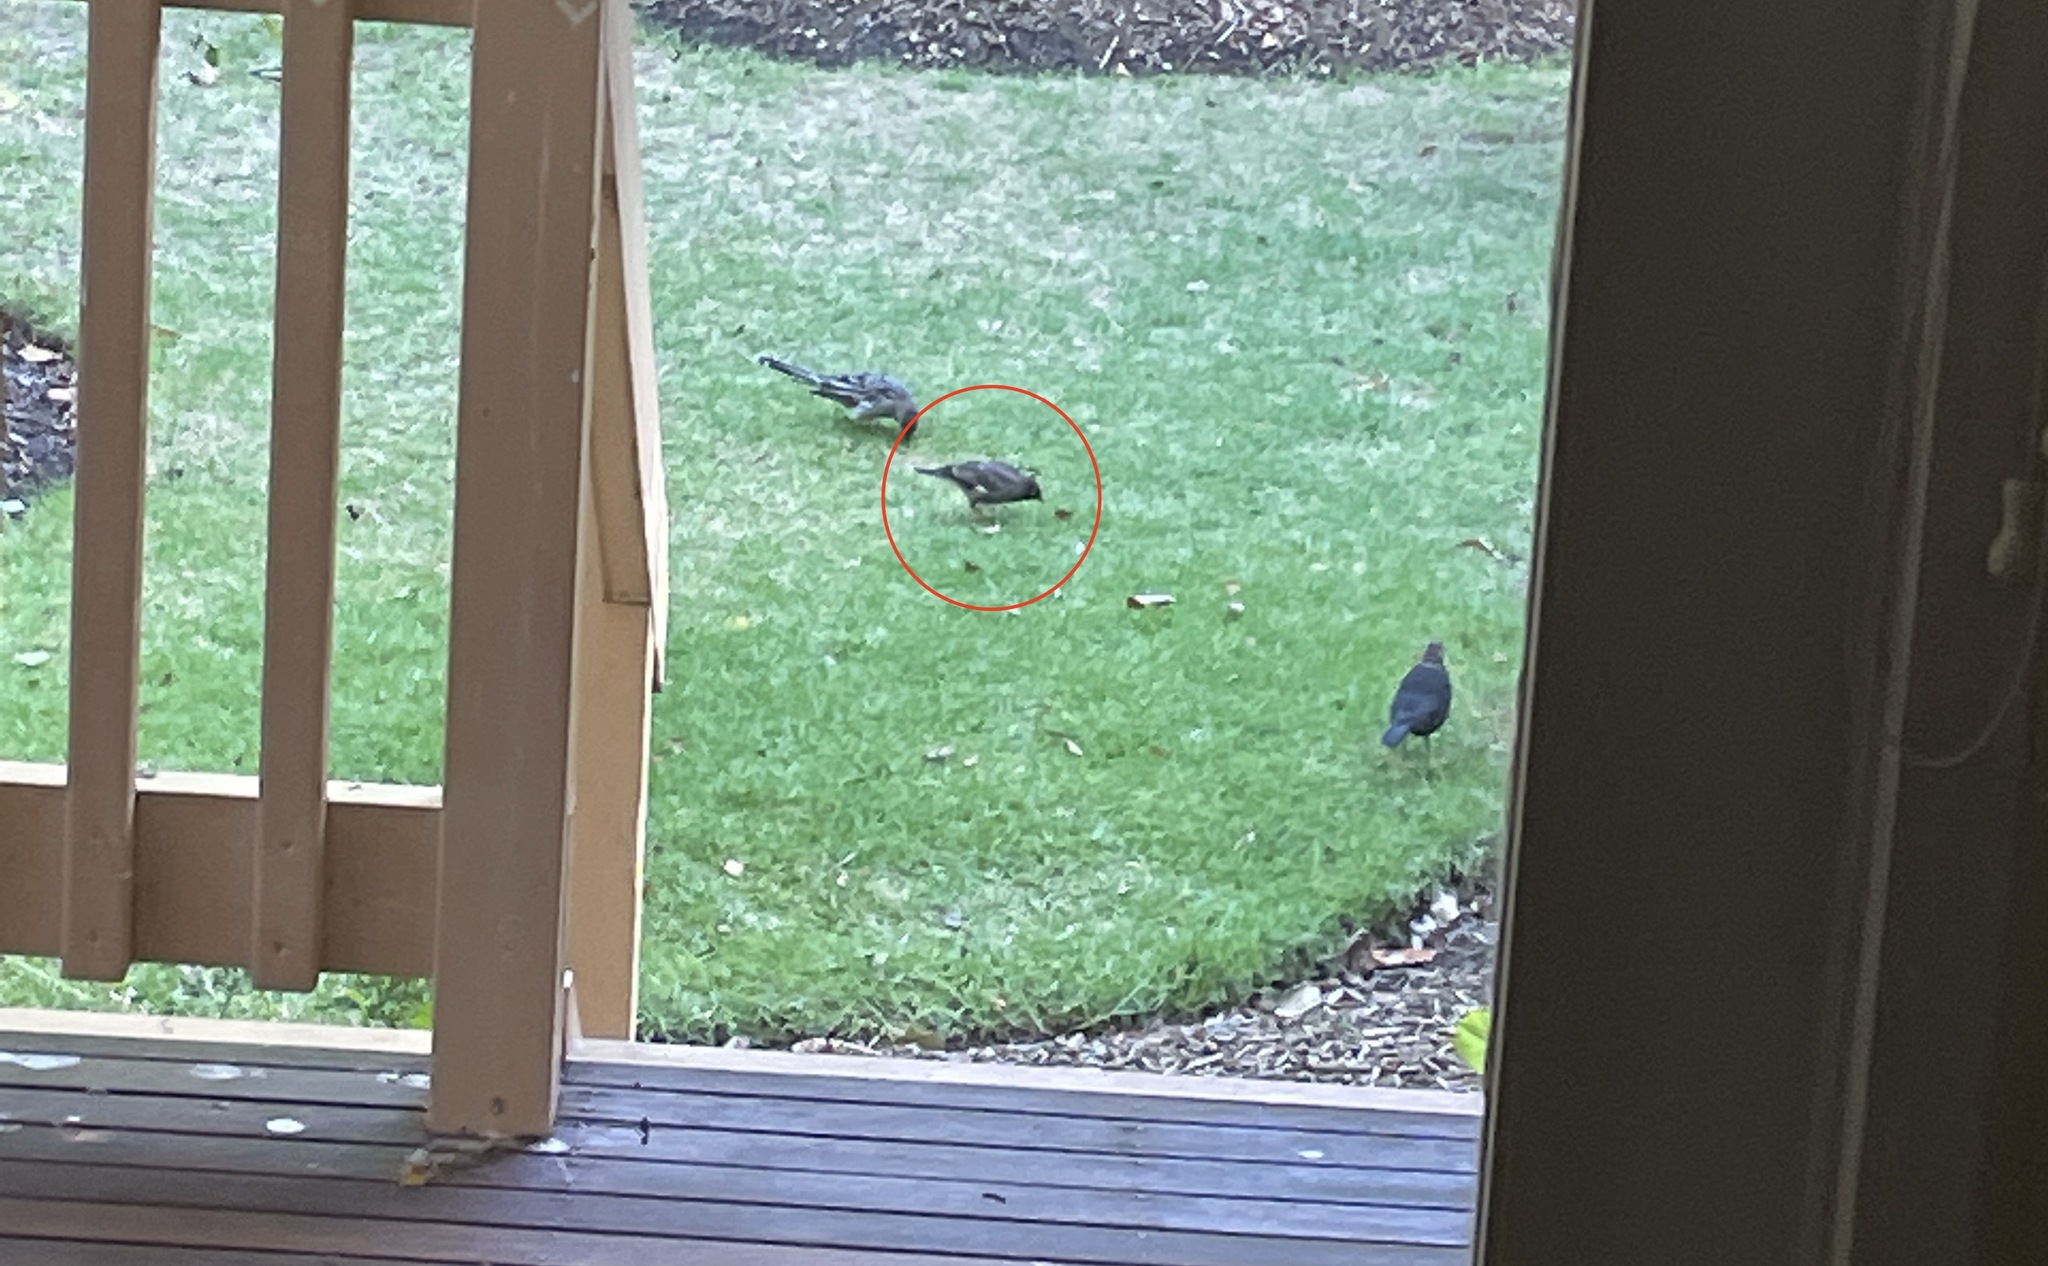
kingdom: Animalia
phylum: Chordata
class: Aves
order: Passeriformes
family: Sturnidae
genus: Acridotheres
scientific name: Acridotheres tristis
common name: Common myna
